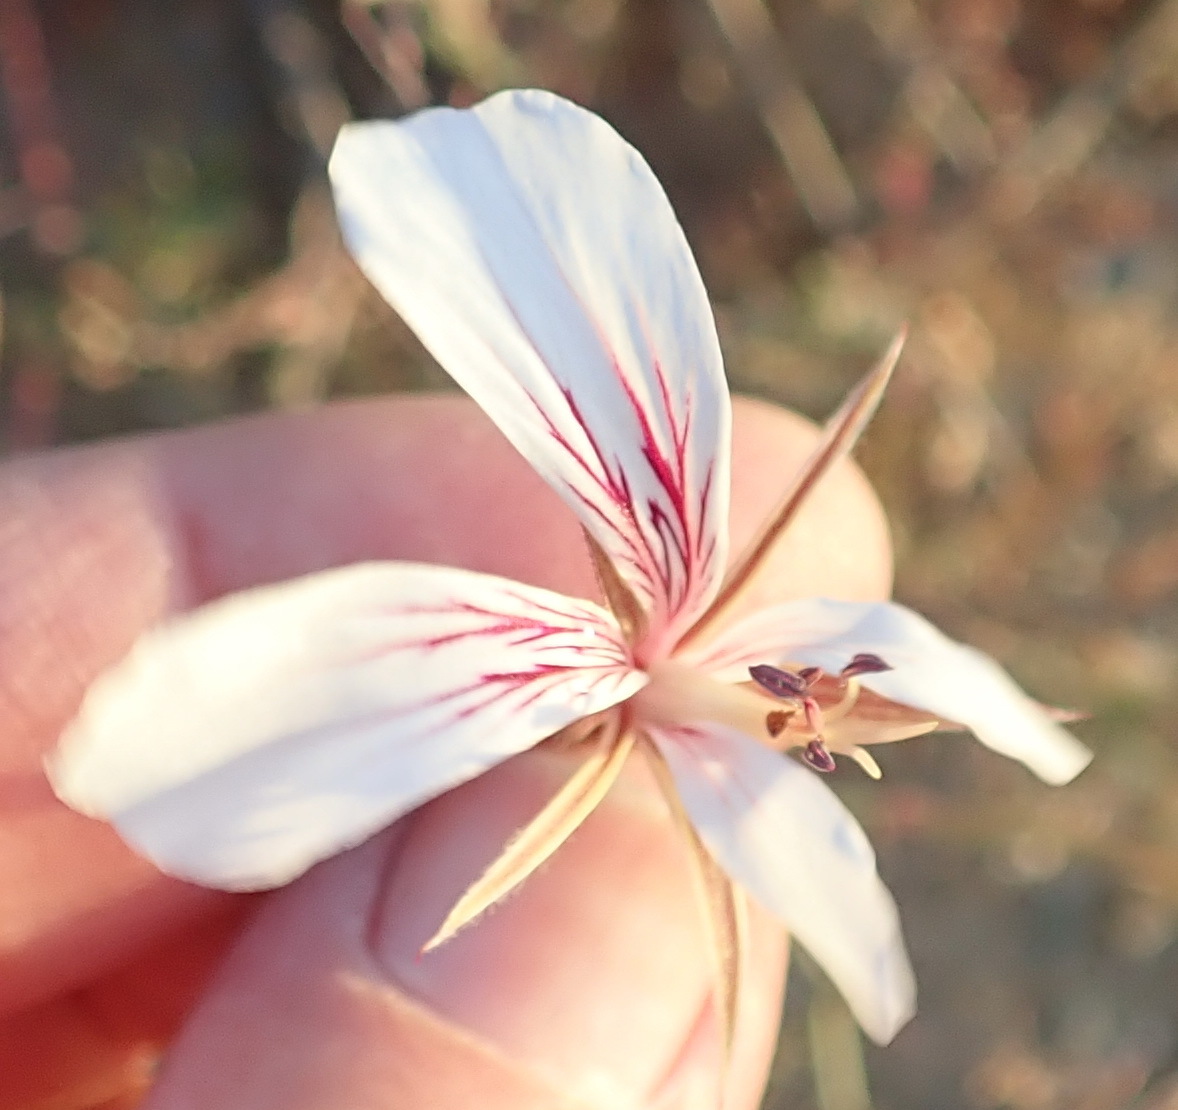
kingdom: Plantae
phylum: Tracheophyta
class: Magnoliopsida
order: Geraniales
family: Geraniaceae
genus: Pelargonium
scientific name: Pelargonium caucalifolium
